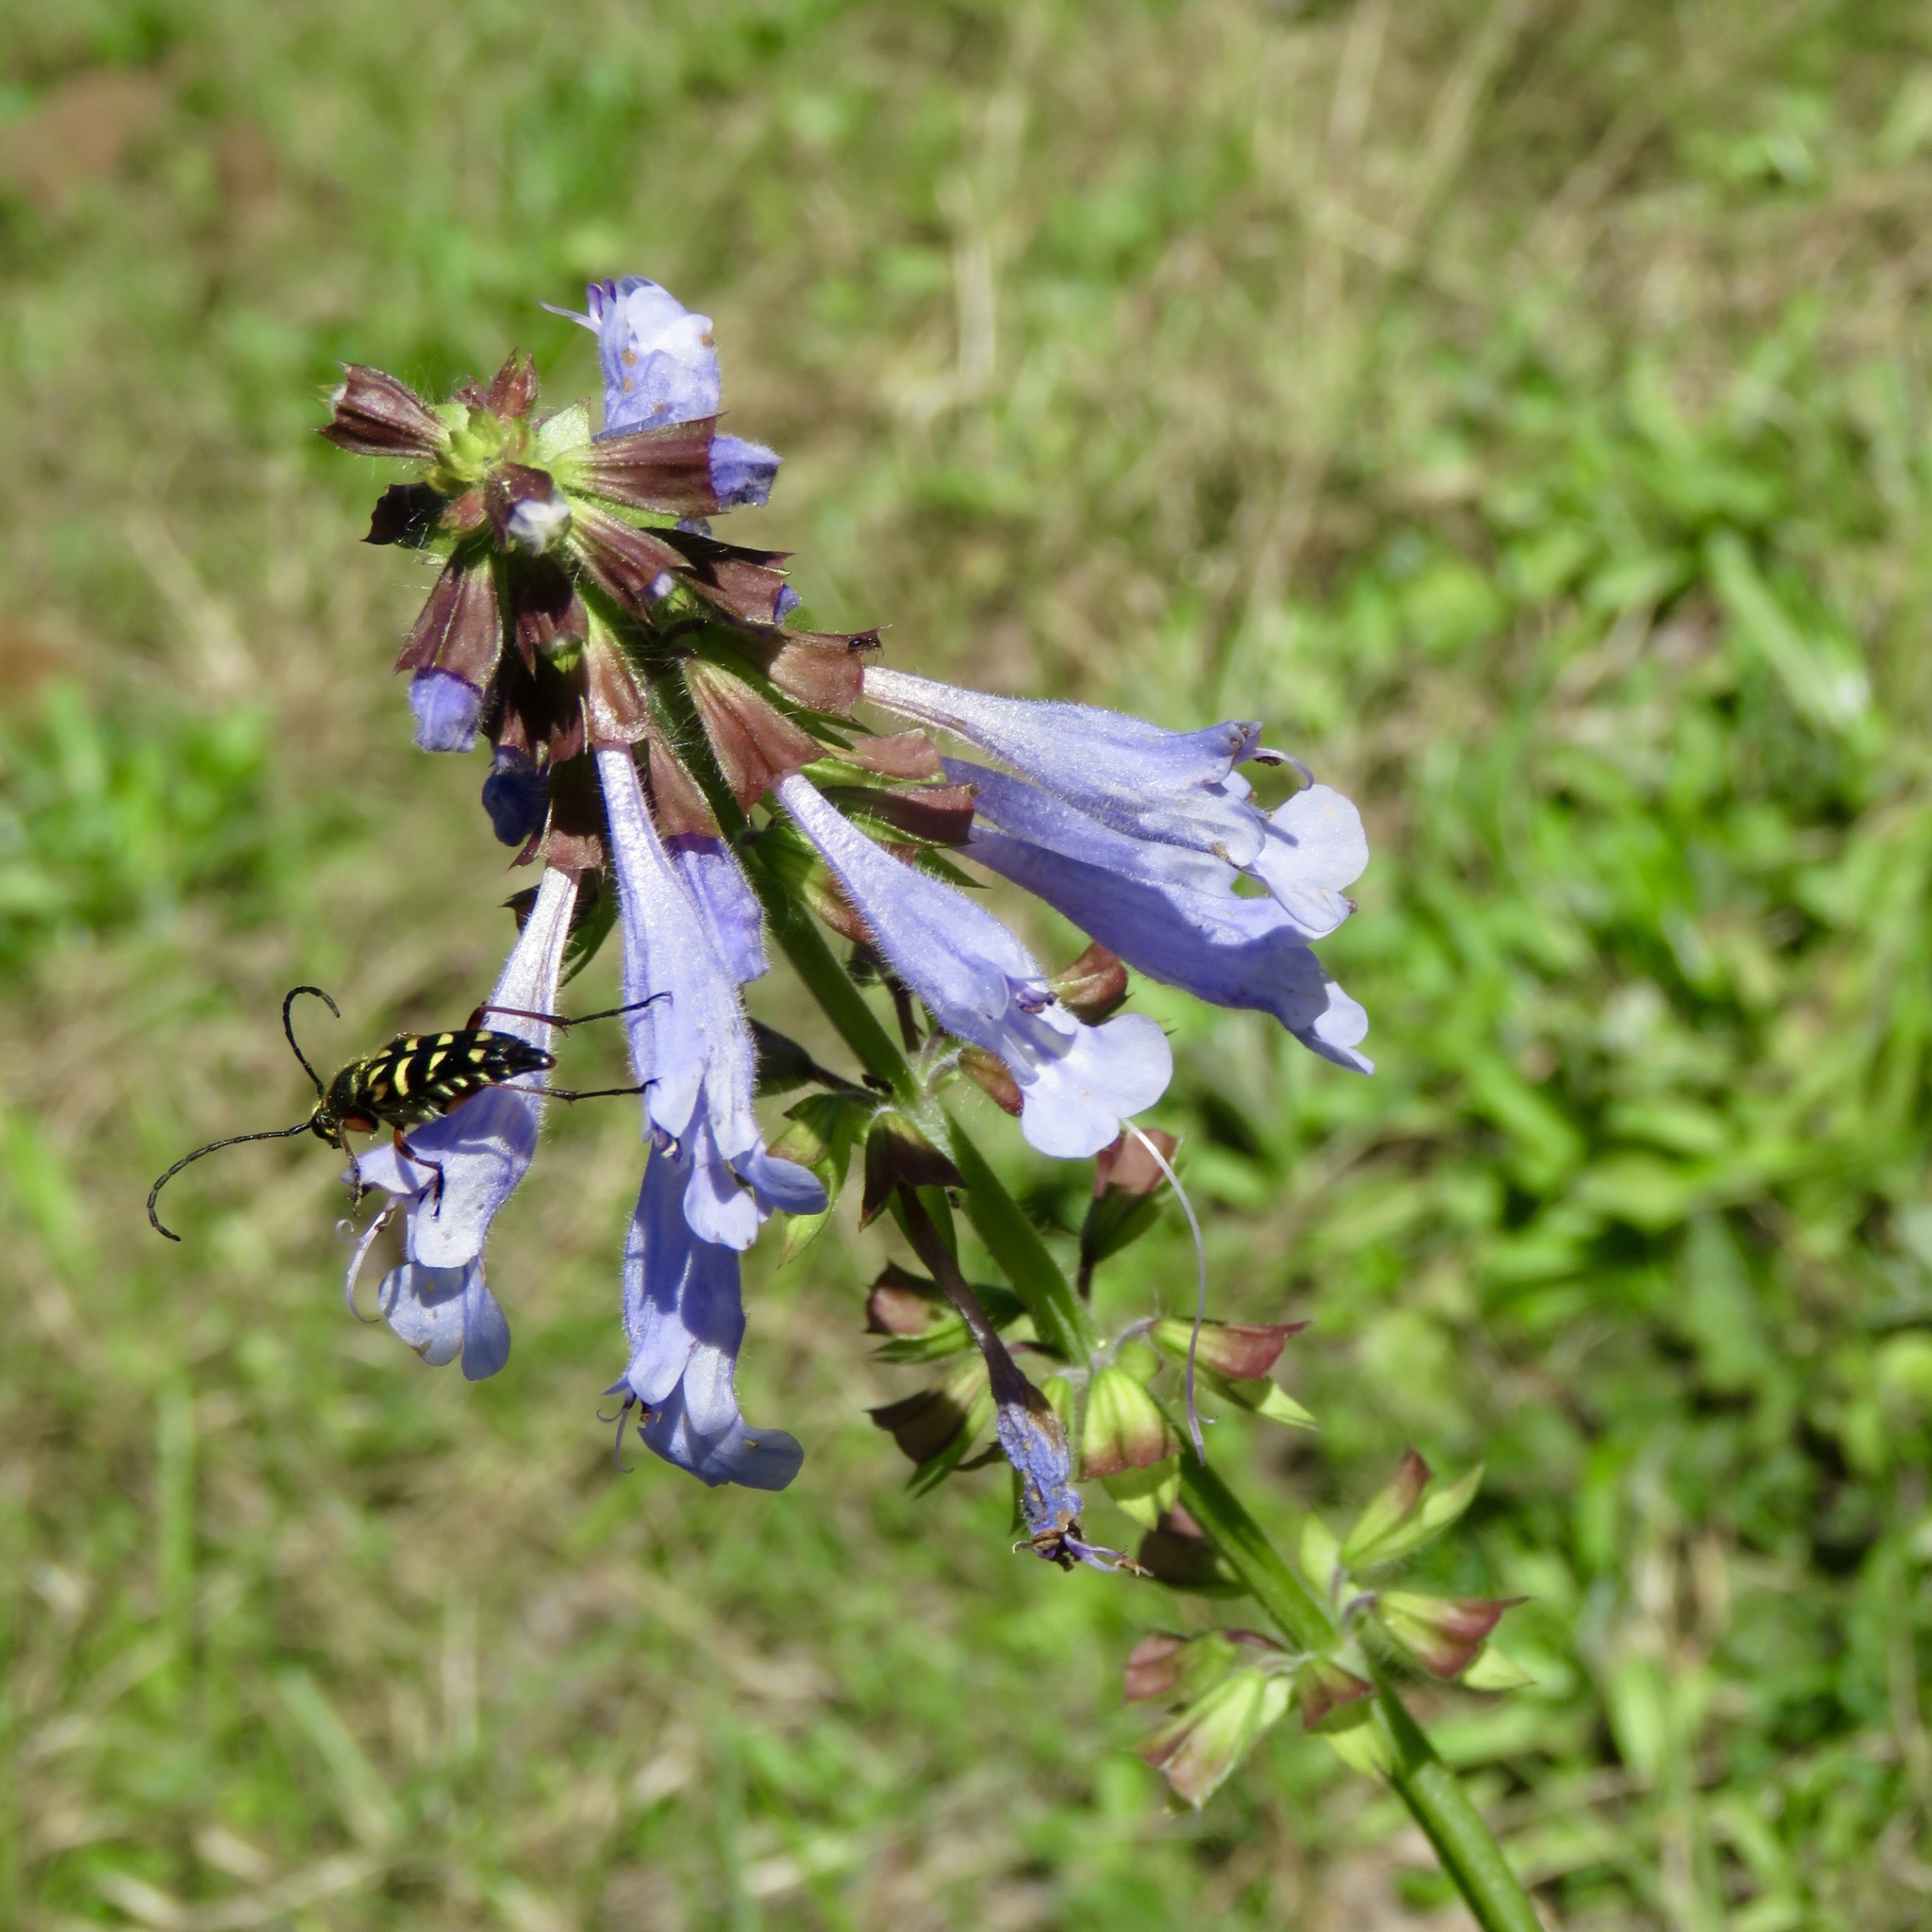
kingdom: Plantae
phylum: Tracheophyta
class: Magnoliopsida
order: Lamiales
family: Lamiaceae
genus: Salvia
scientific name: Salvia lyrata
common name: Cancerweed
